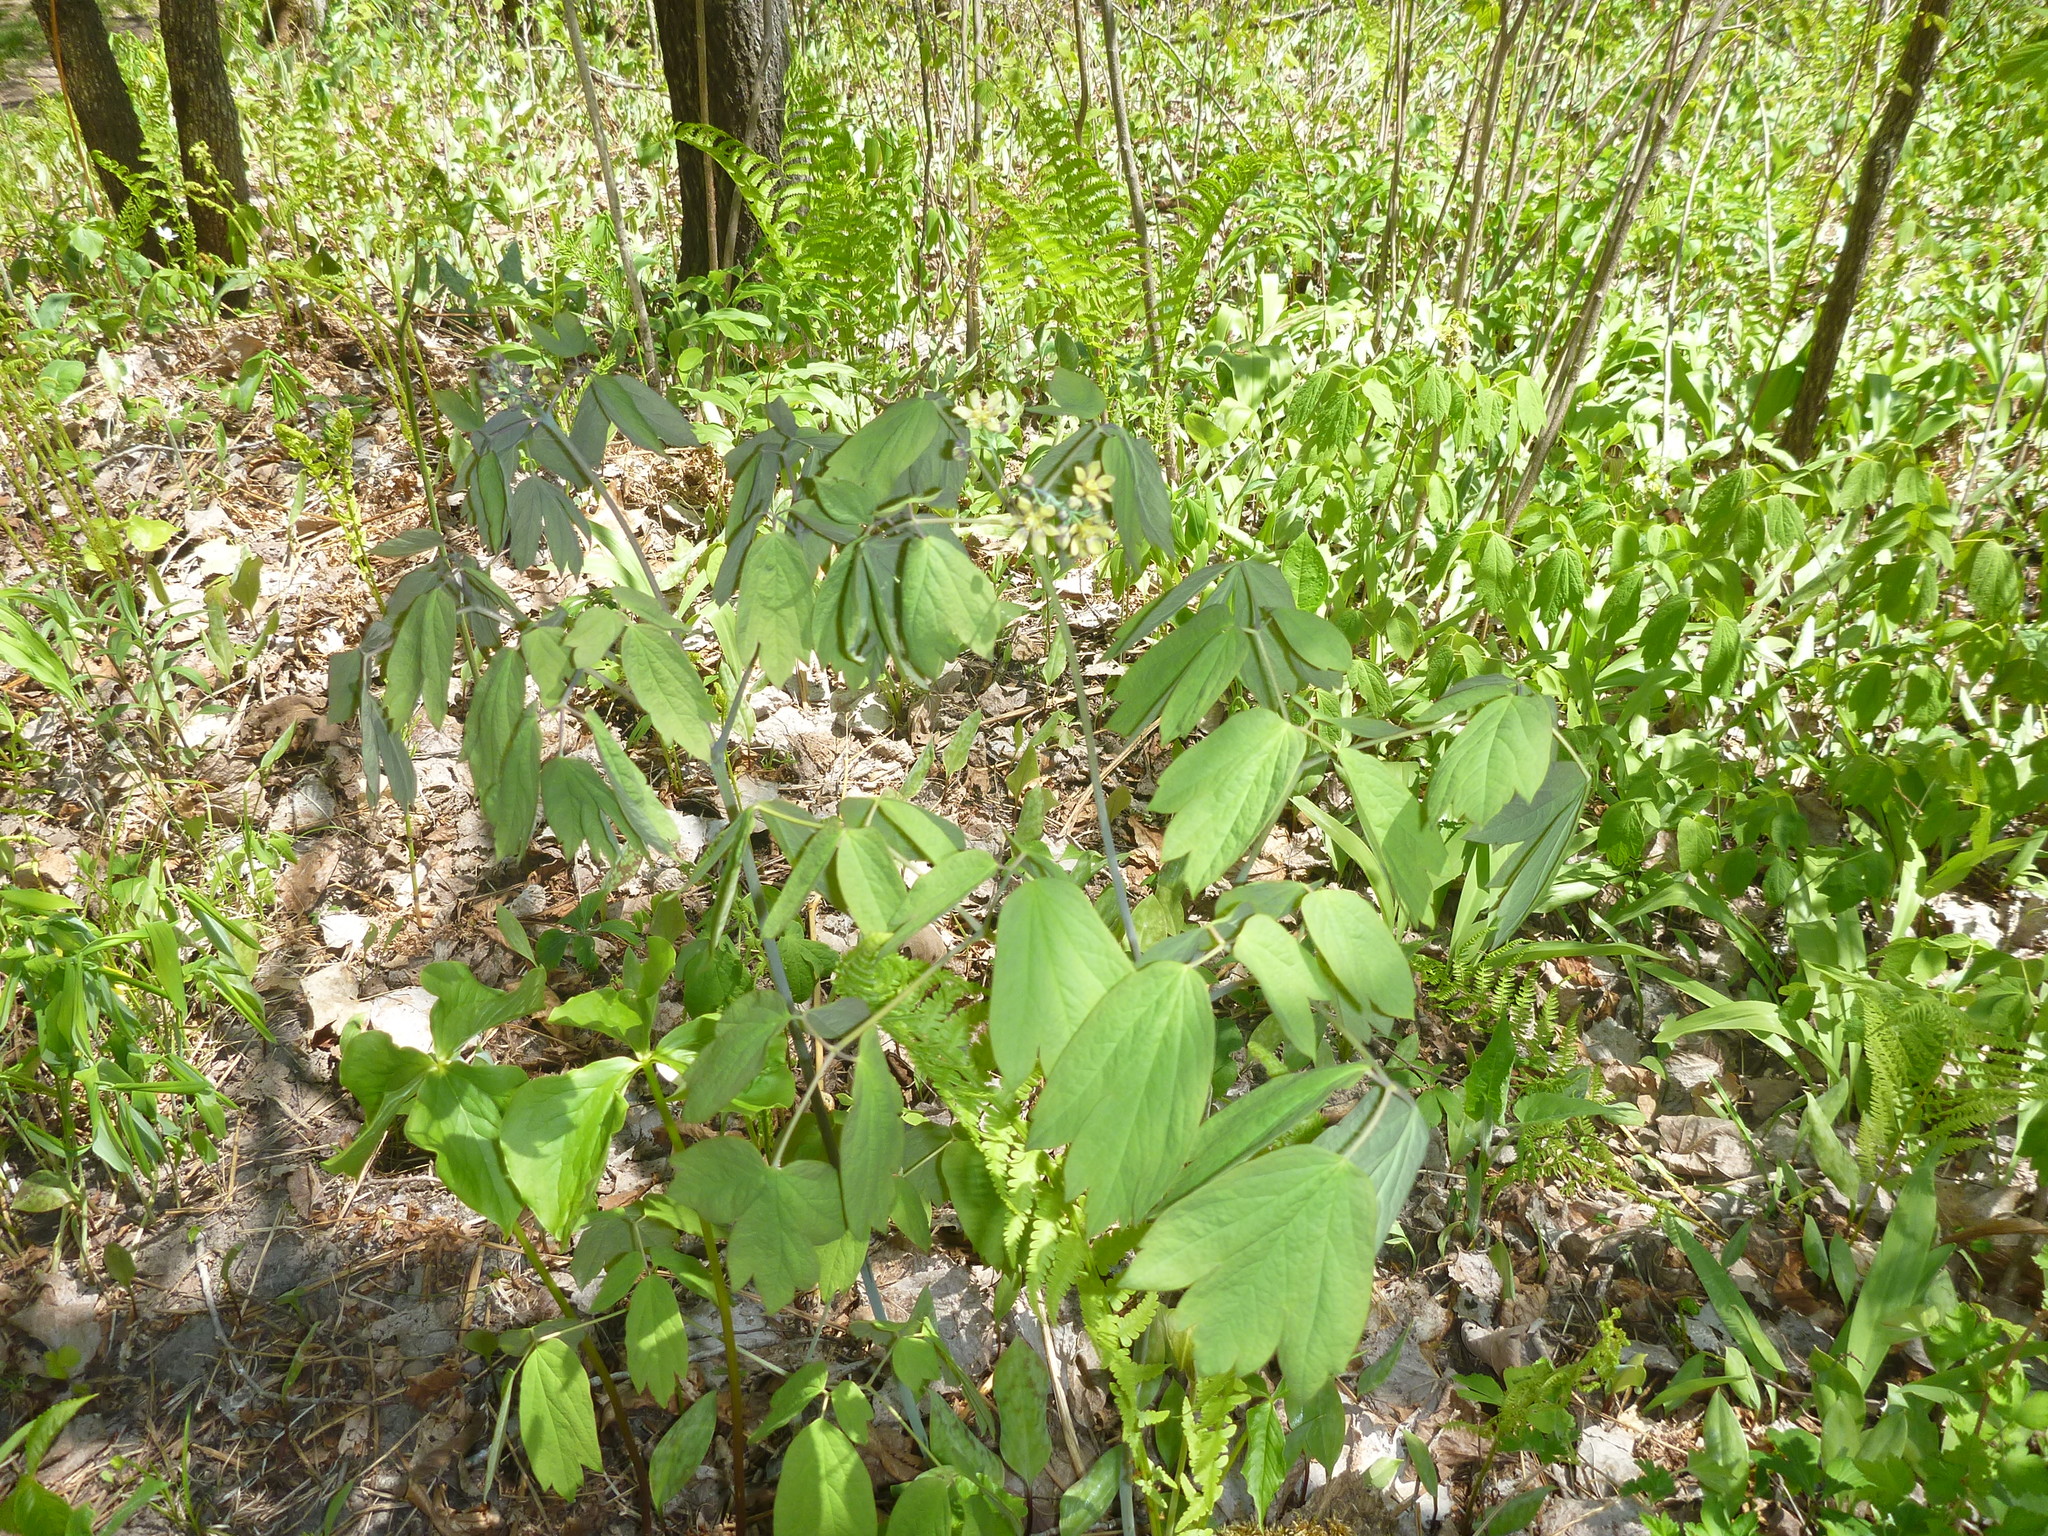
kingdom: Plantae
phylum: Tracheophyta
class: Magnoliopsida
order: Ranunculales
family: Berberidaceae
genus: Caulophyllum
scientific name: Caulophyllum thalictroides
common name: Blue cohosh
